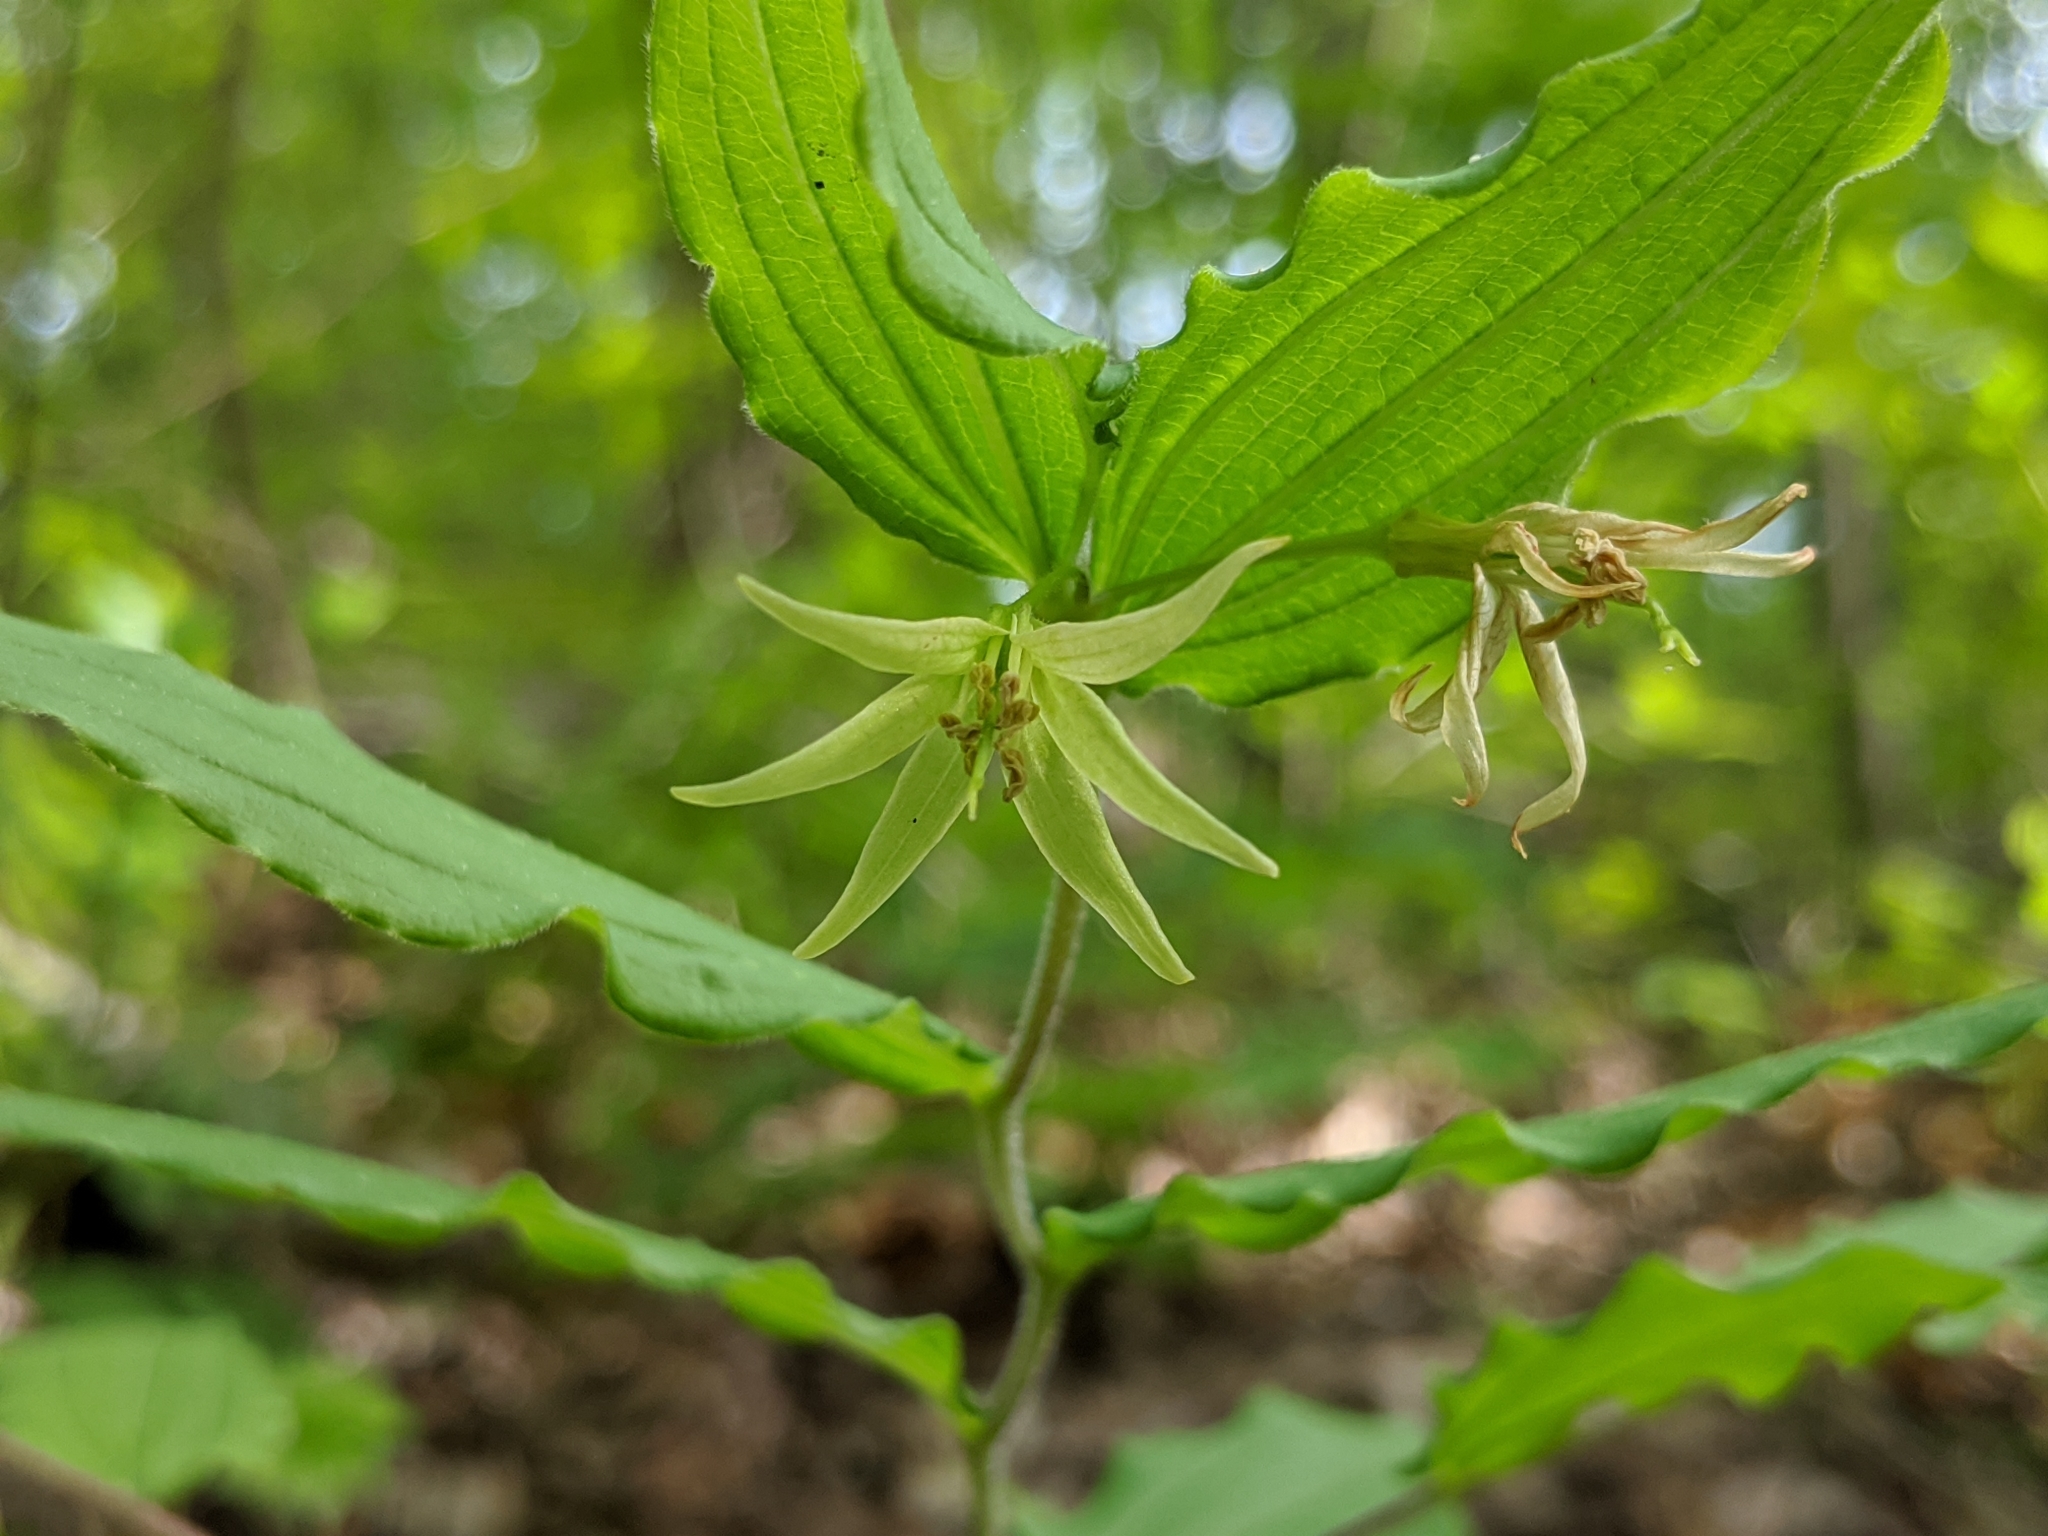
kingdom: Plantae
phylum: Tracheophyta
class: Liliopsida
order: Liliales
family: Liliaceae
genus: Prosartes
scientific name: Prosartes lanuginosa
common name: Hairy mandarin
